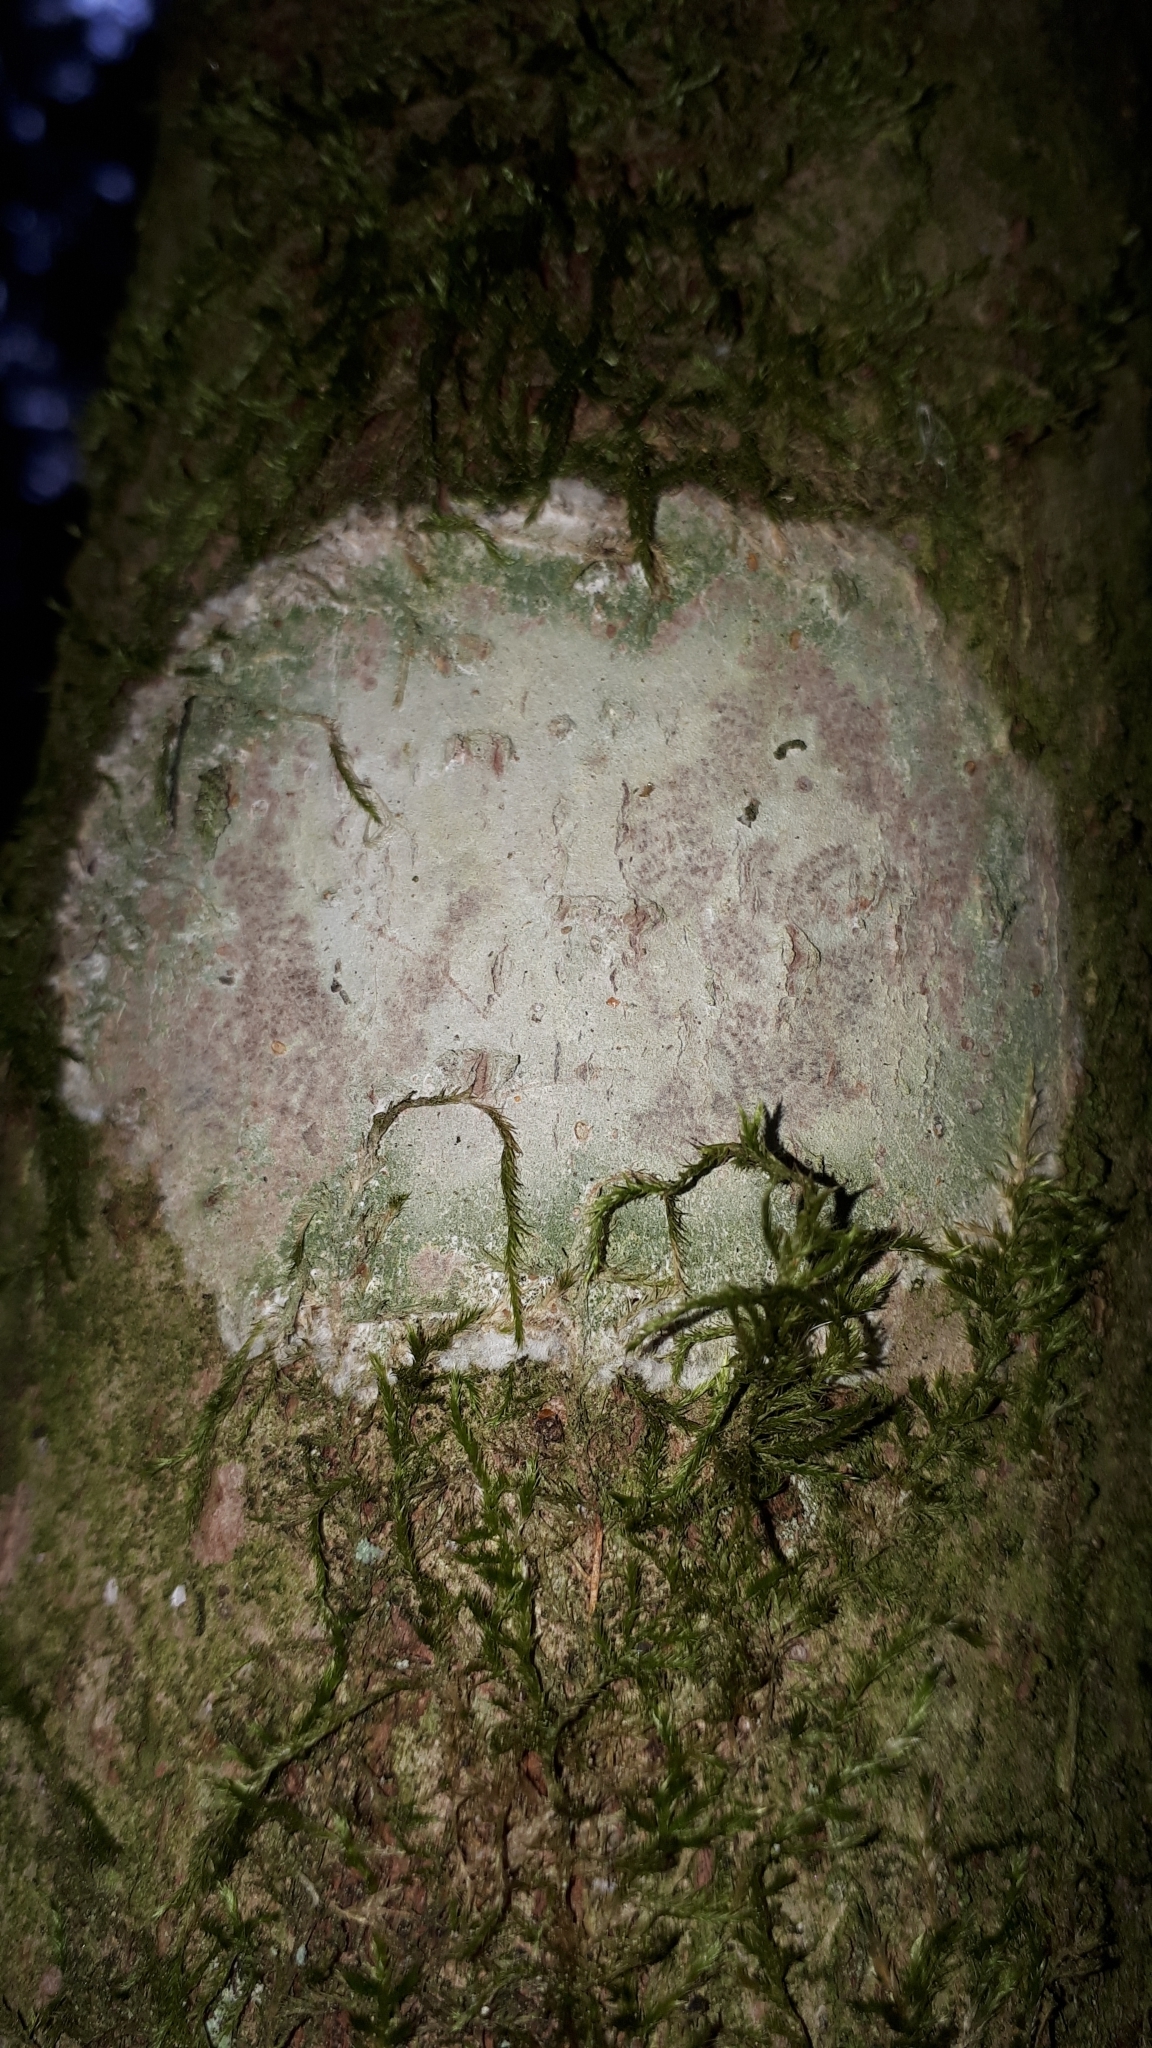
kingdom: Fungi
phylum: Ascomycota
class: Lecanoromycetes
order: Ostropales
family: Phlyctidaceae
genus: Phlyctis
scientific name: Phlyctis argena
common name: Whitewash lichen
